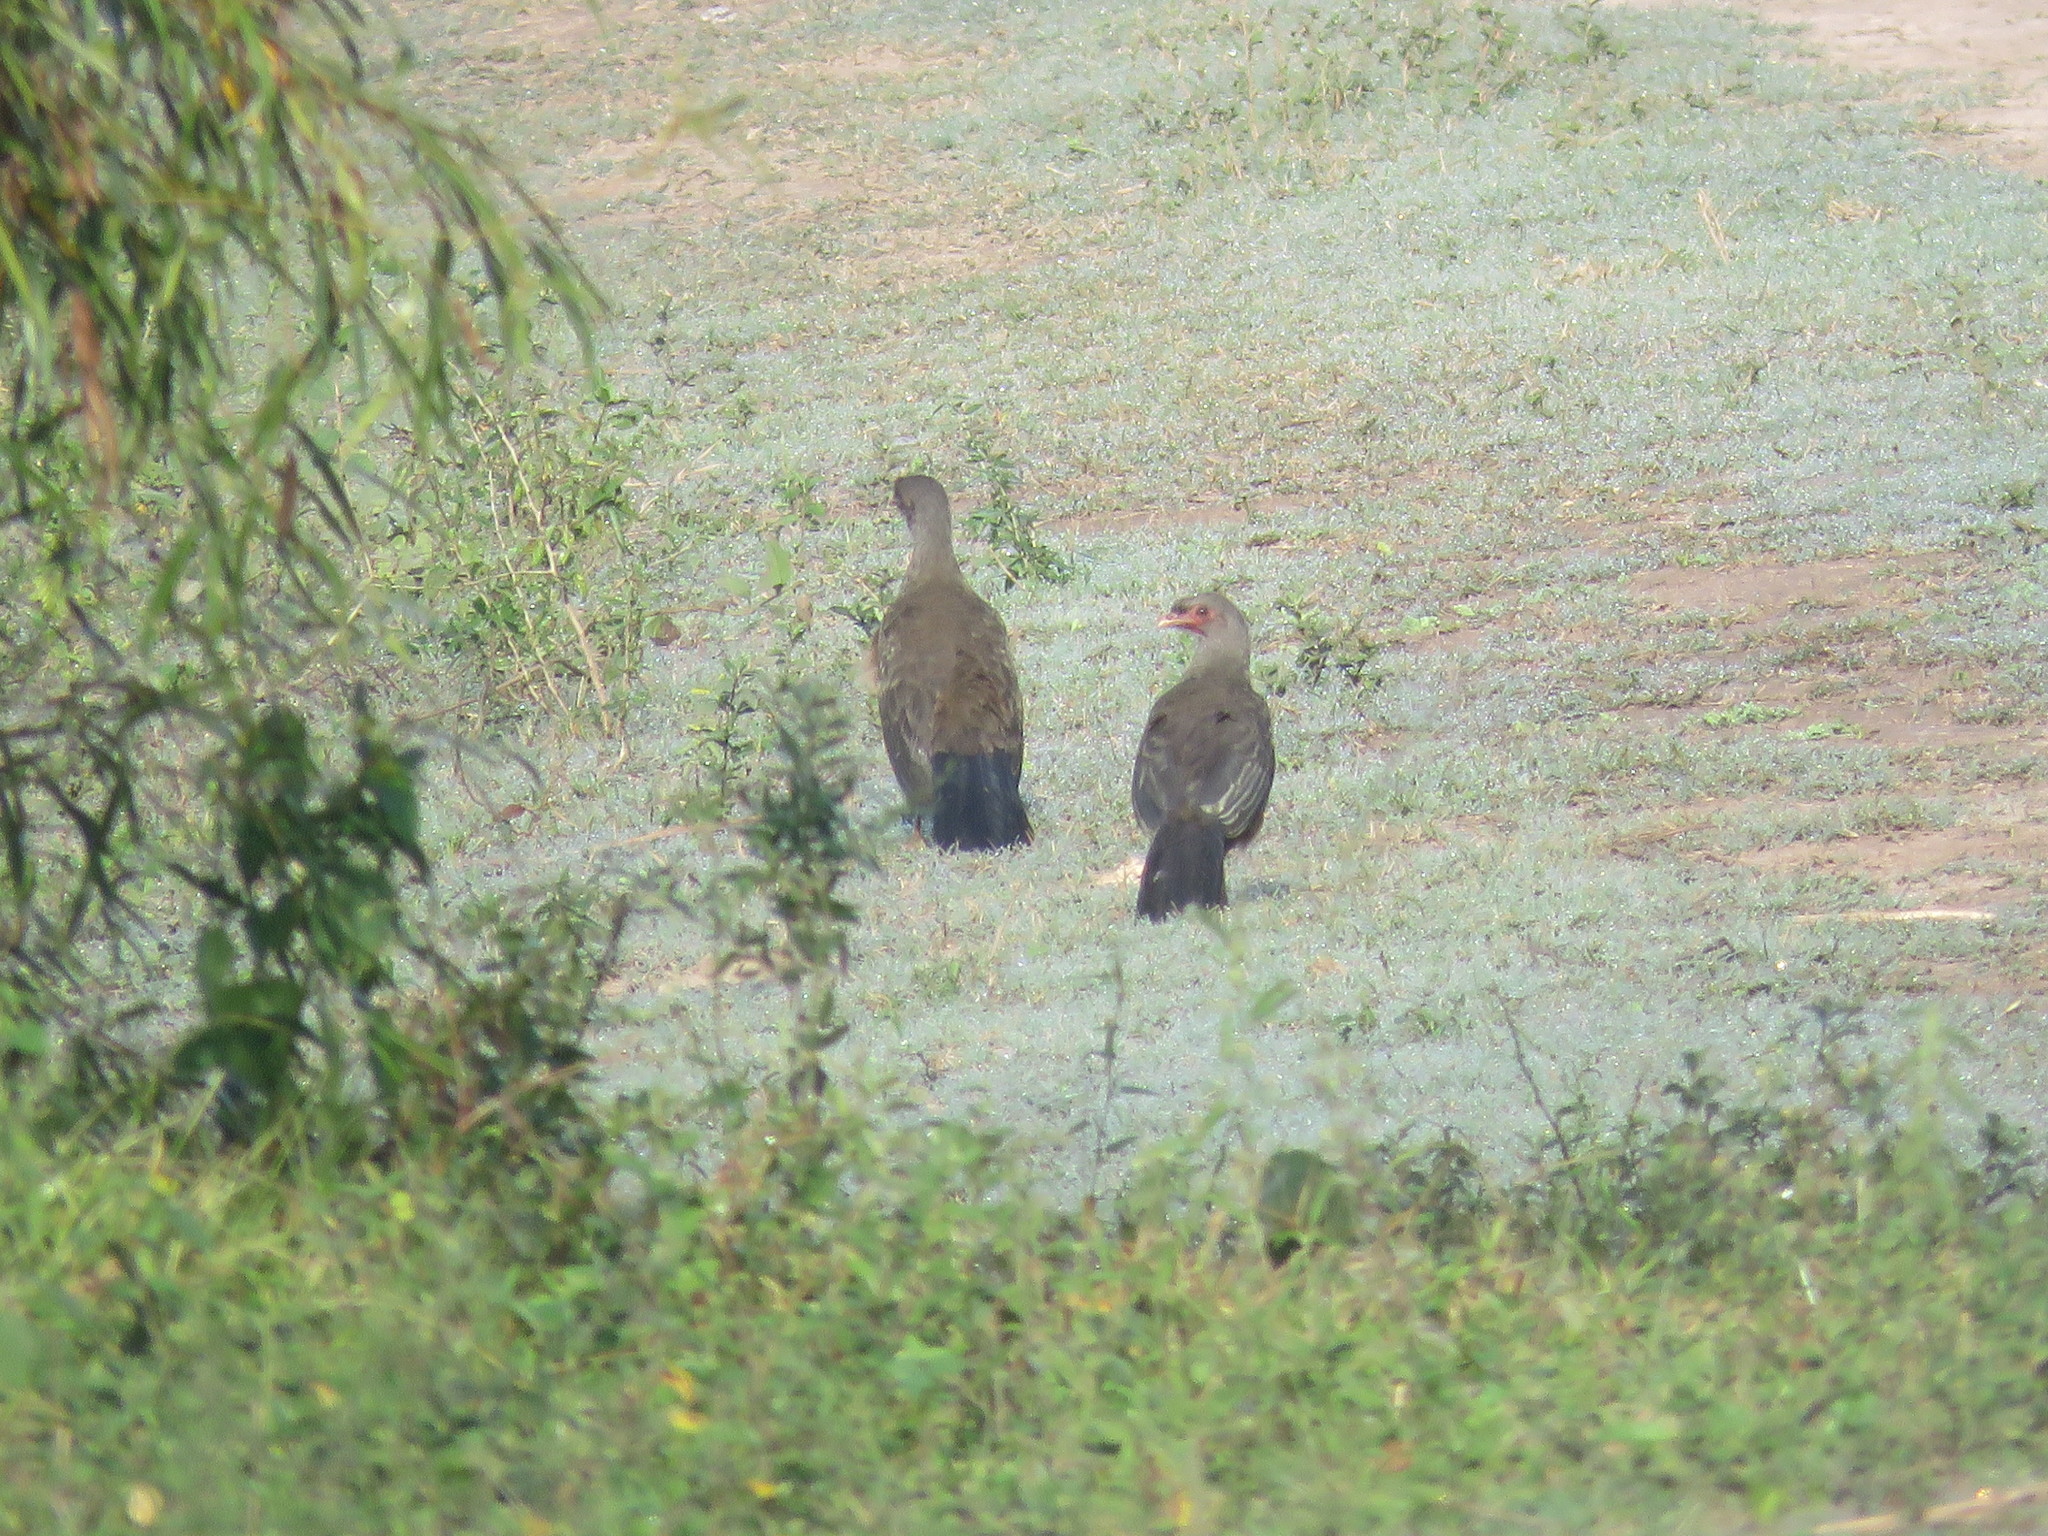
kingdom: Animalia
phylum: Chordata
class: Aves
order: Galliformes
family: Cracidae
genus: Ortalis
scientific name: Ortalis canicollis
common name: Chaco chachalaca
